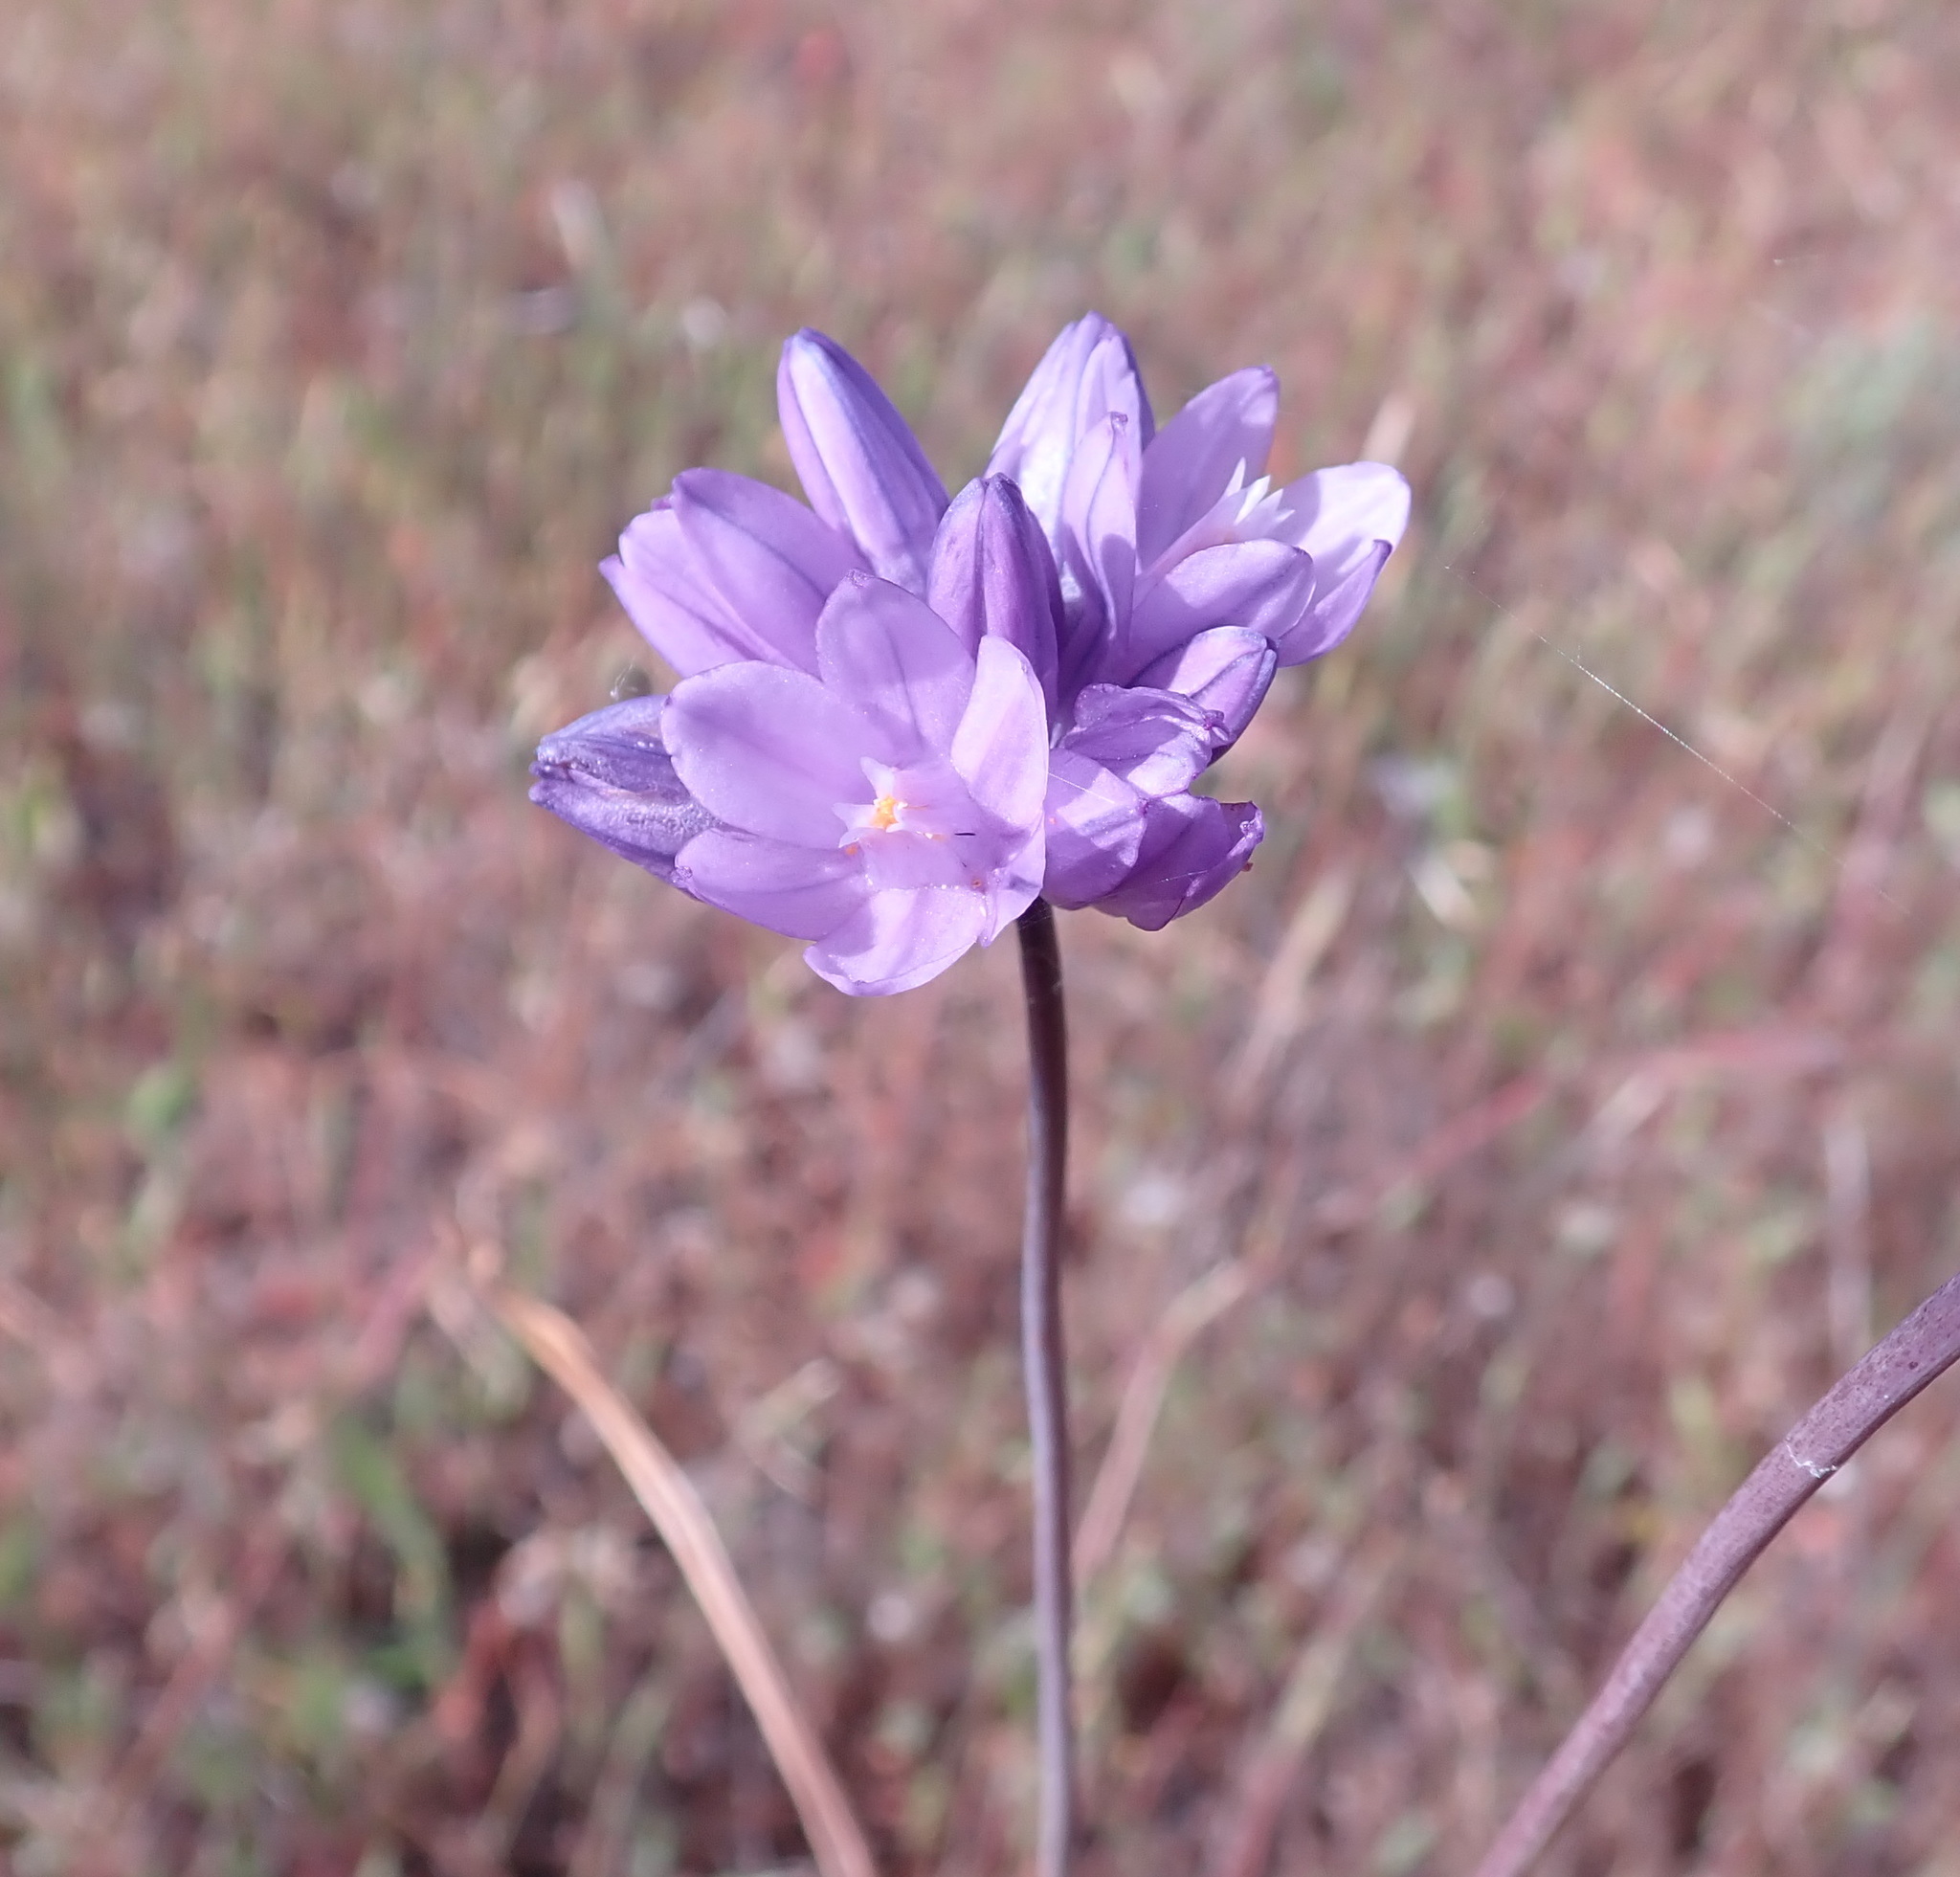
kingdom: Plantae
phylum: Tracheophyta
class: Liliopsida
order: Asparagales
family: Asparagaceae
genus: Dipterostemon
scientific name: Dipterostemon capitatus
